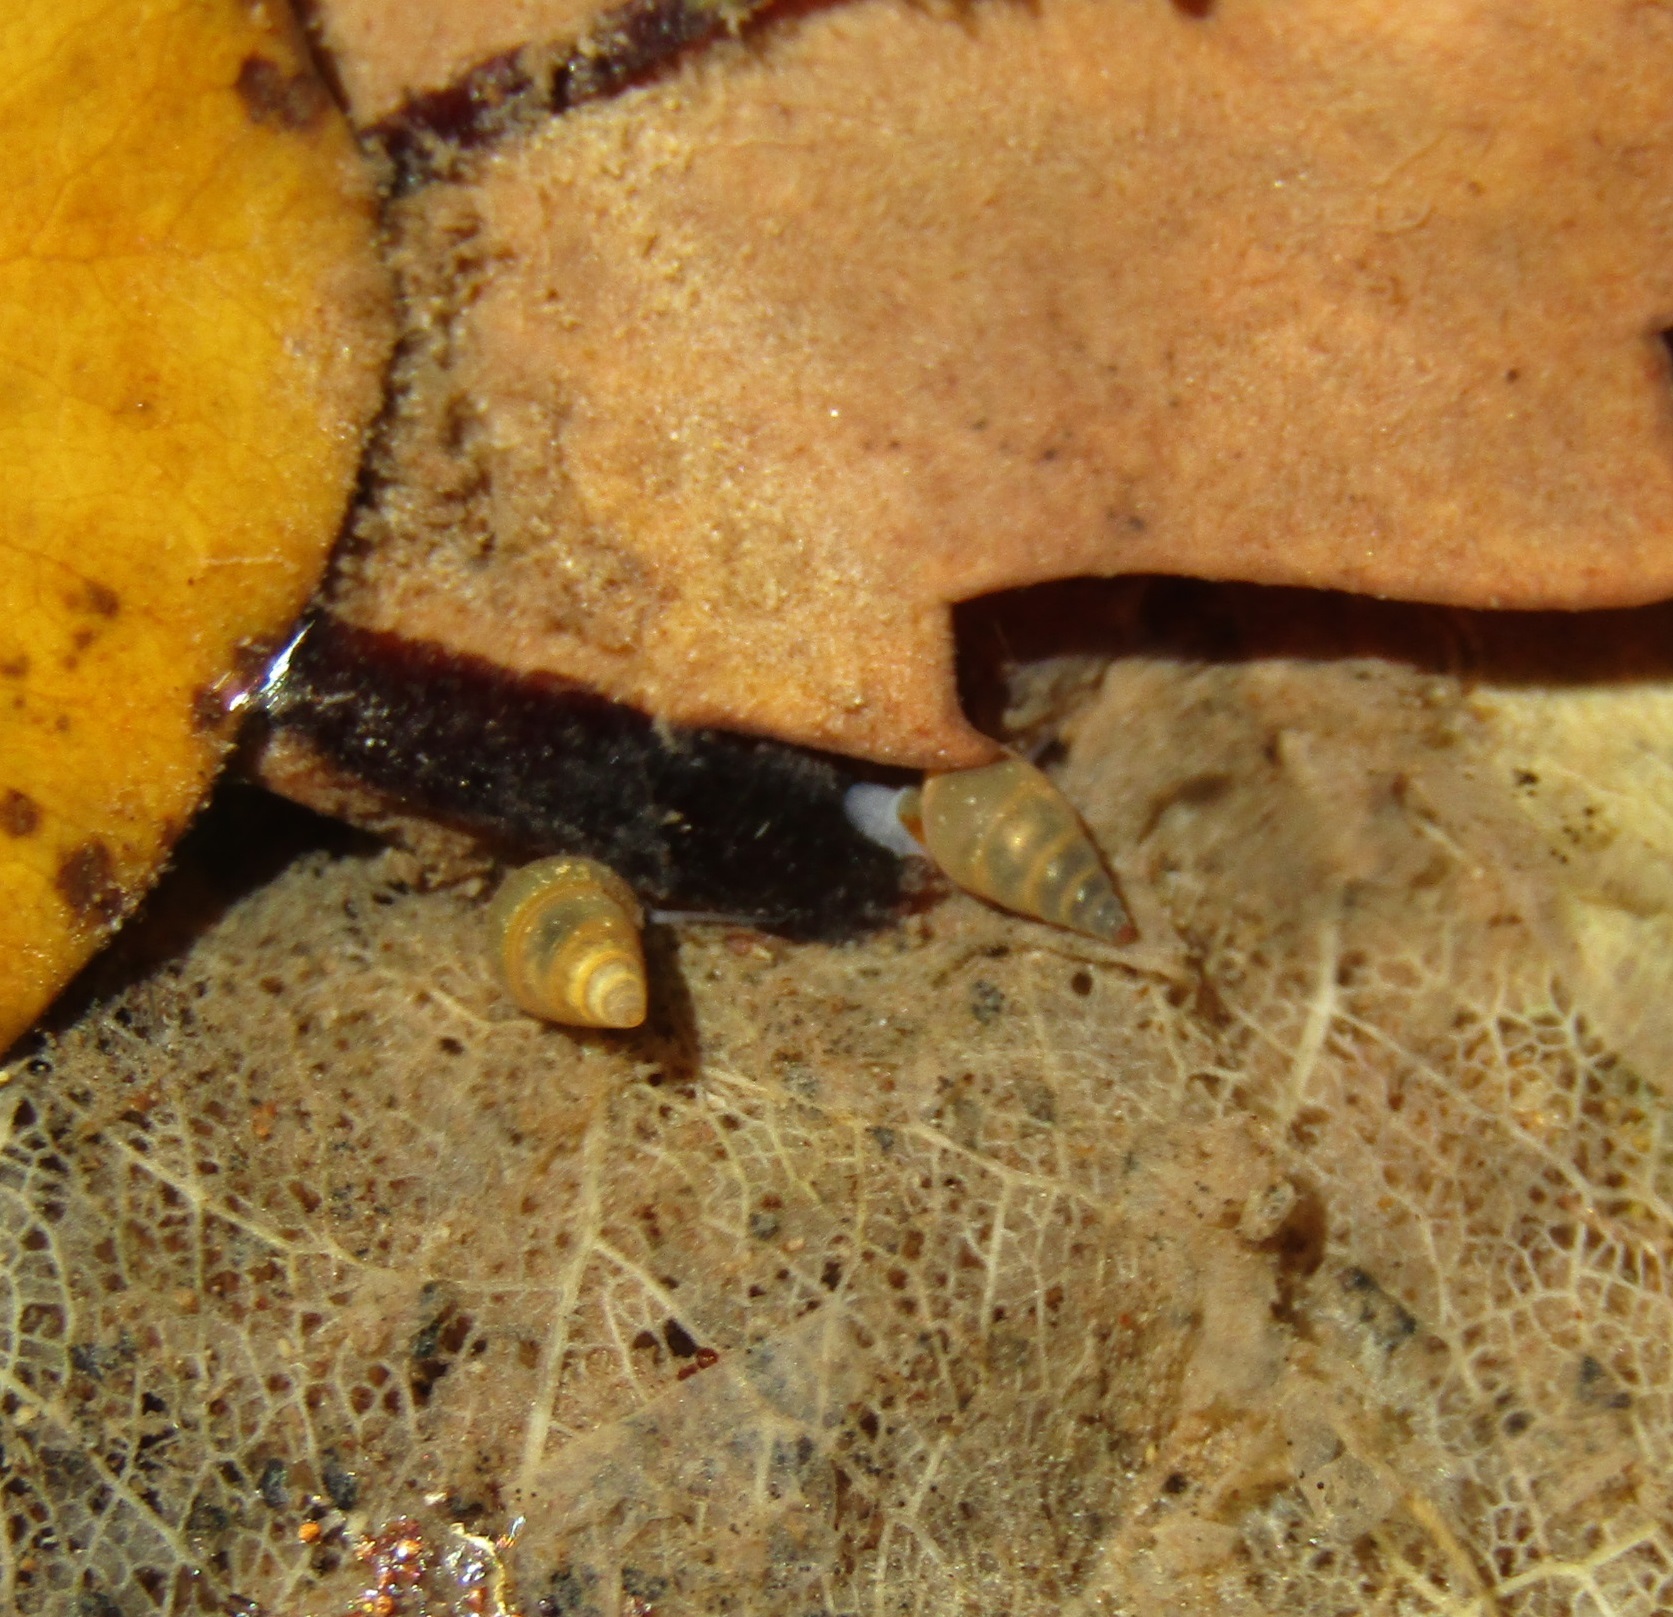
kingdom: Animalia
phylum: Mollusca
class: Gastropoda
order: Littorinimorpha
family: Tateidae
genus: Potamopyrgus
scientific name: Potamopyrgus antipodarum
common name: Jenkins' spire snail
